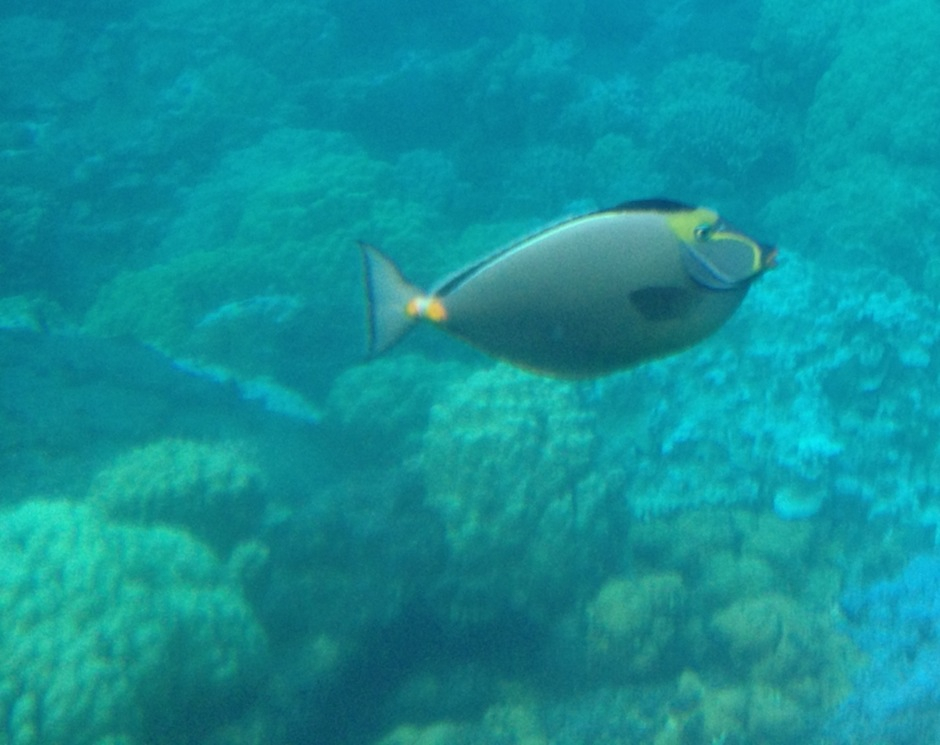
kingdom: Animalia
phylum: Chordata
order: Perciformes
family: Acanthuridae
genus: Naso
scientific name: Naso lituratus
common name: Orangespine unicornfish
